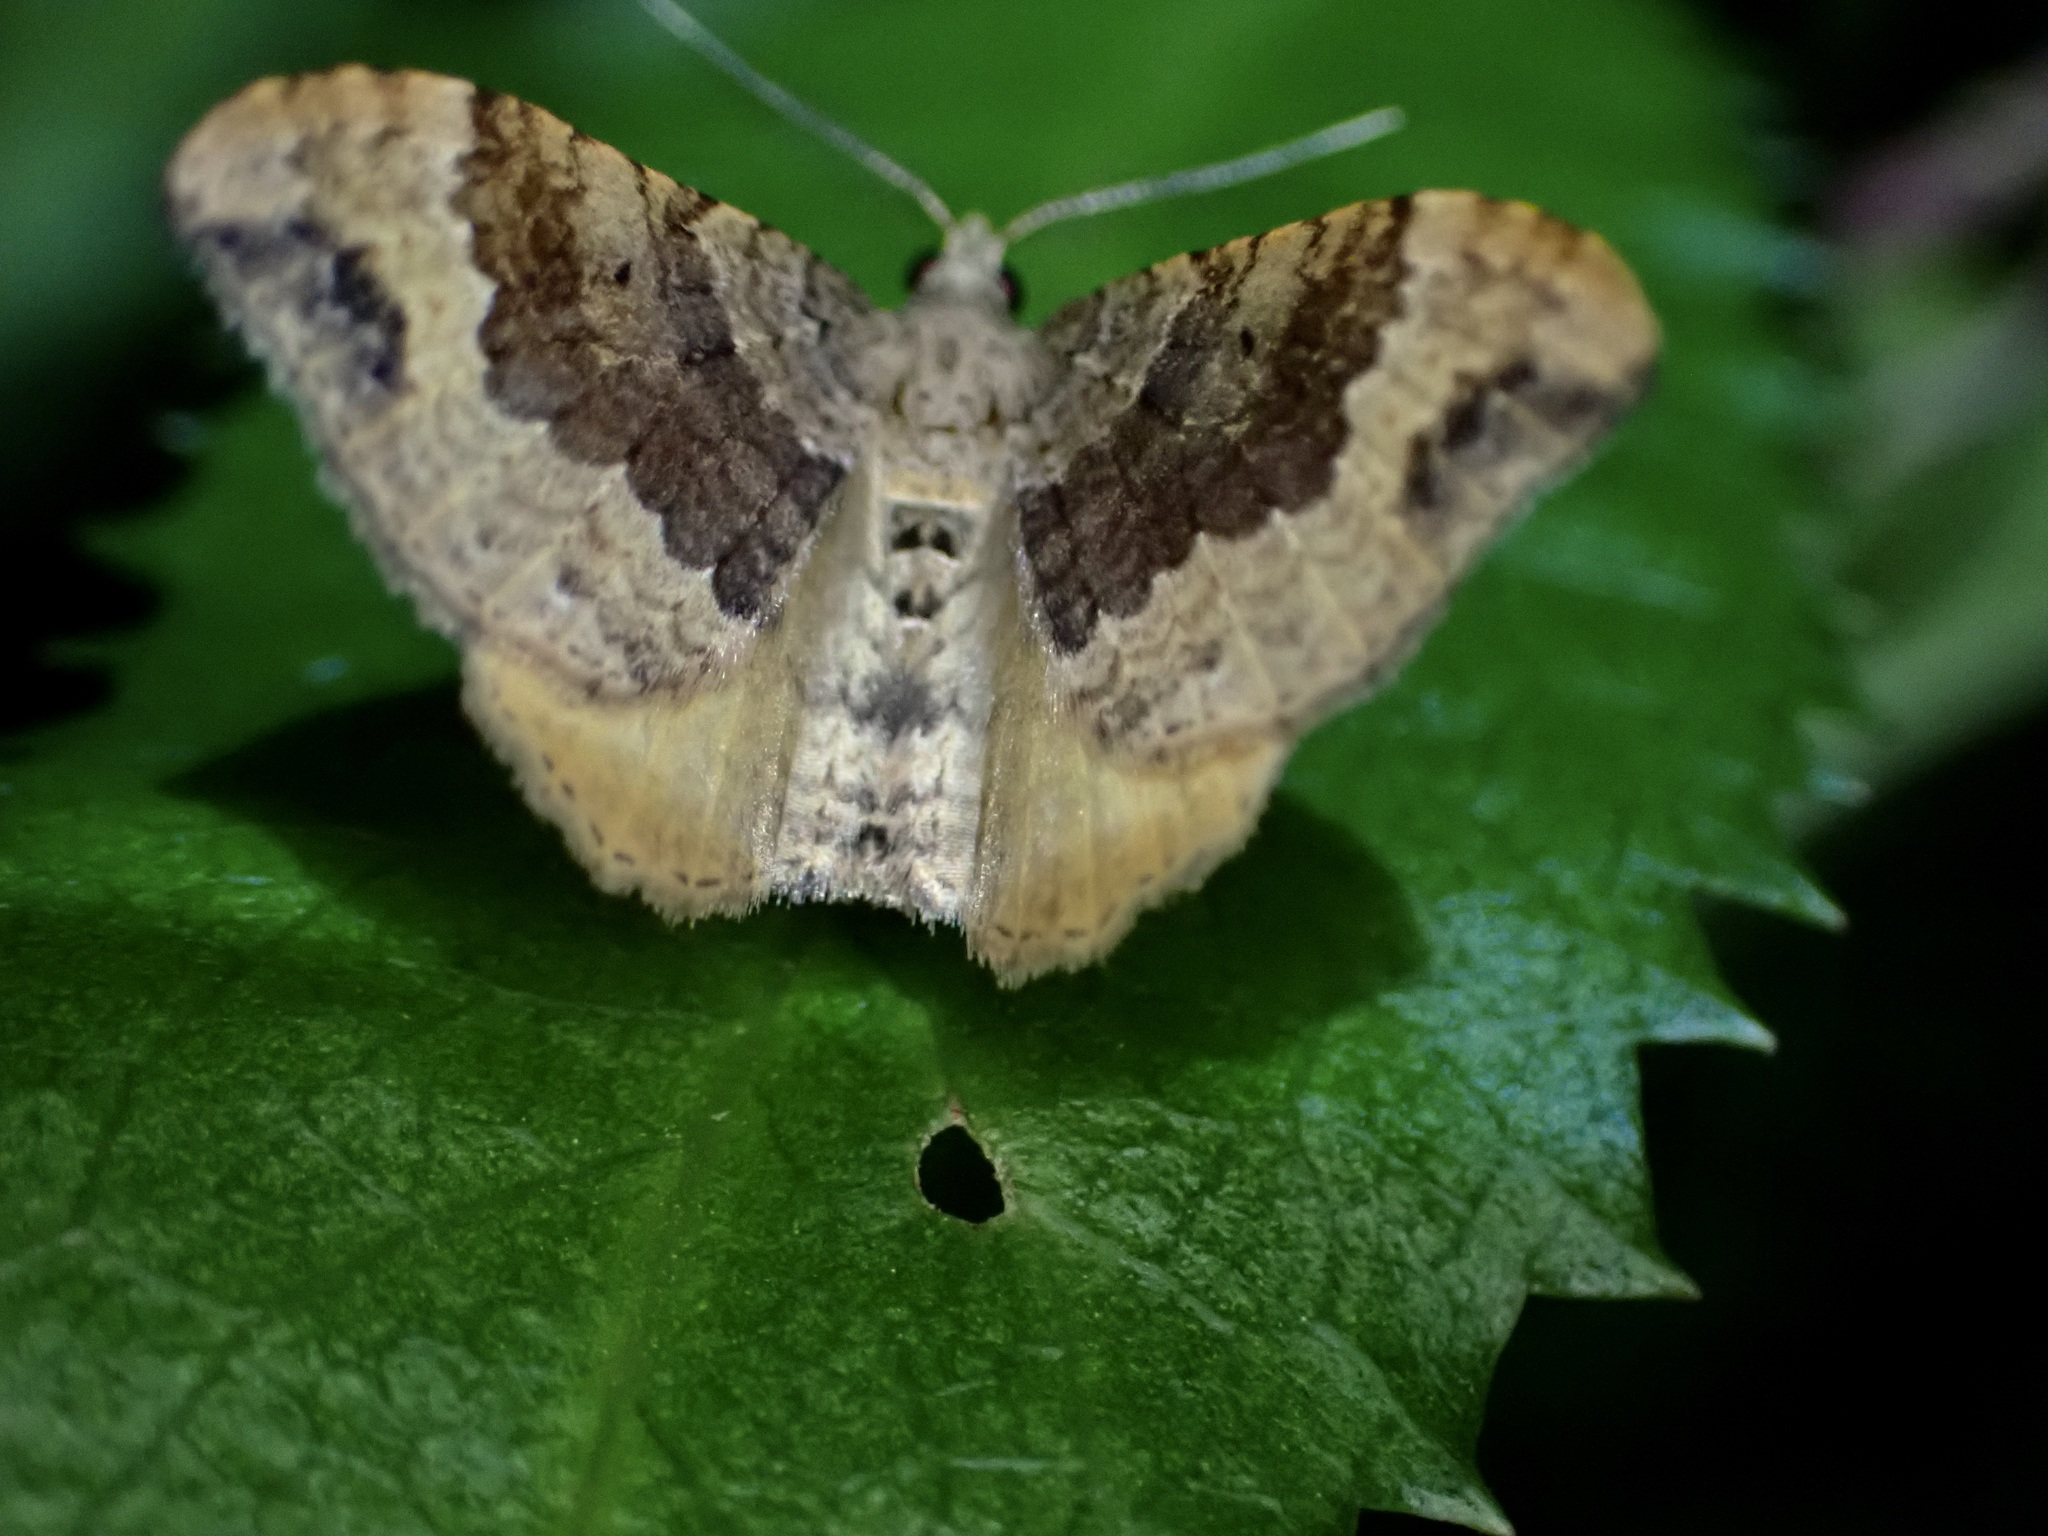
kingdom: Animalia
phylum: Arthropoda
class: Insecta
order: Lepidoptera
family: Geometridae
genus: Homodotis
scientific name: Homodotis megaspilata
